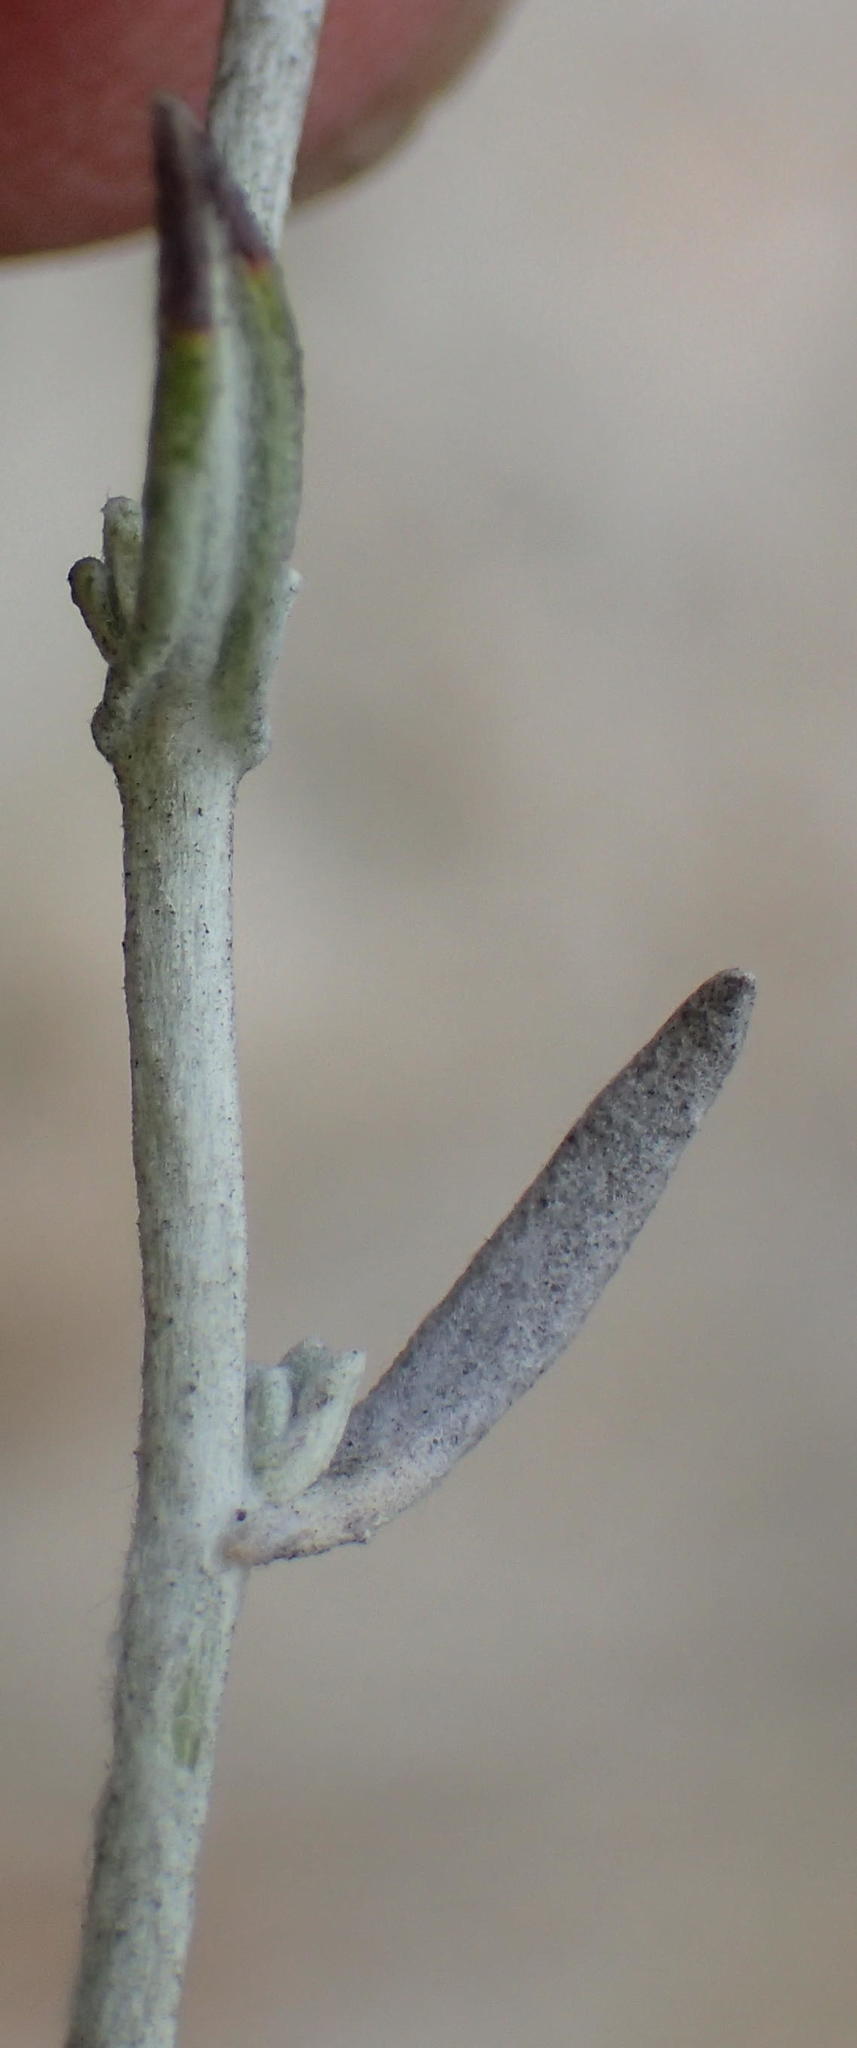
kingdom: Plantae
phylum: Tracheophyta
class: Magnoliopsida
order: Asterales
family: Asteraceae
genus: Helichrysum
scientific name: Helichrysum rosum
